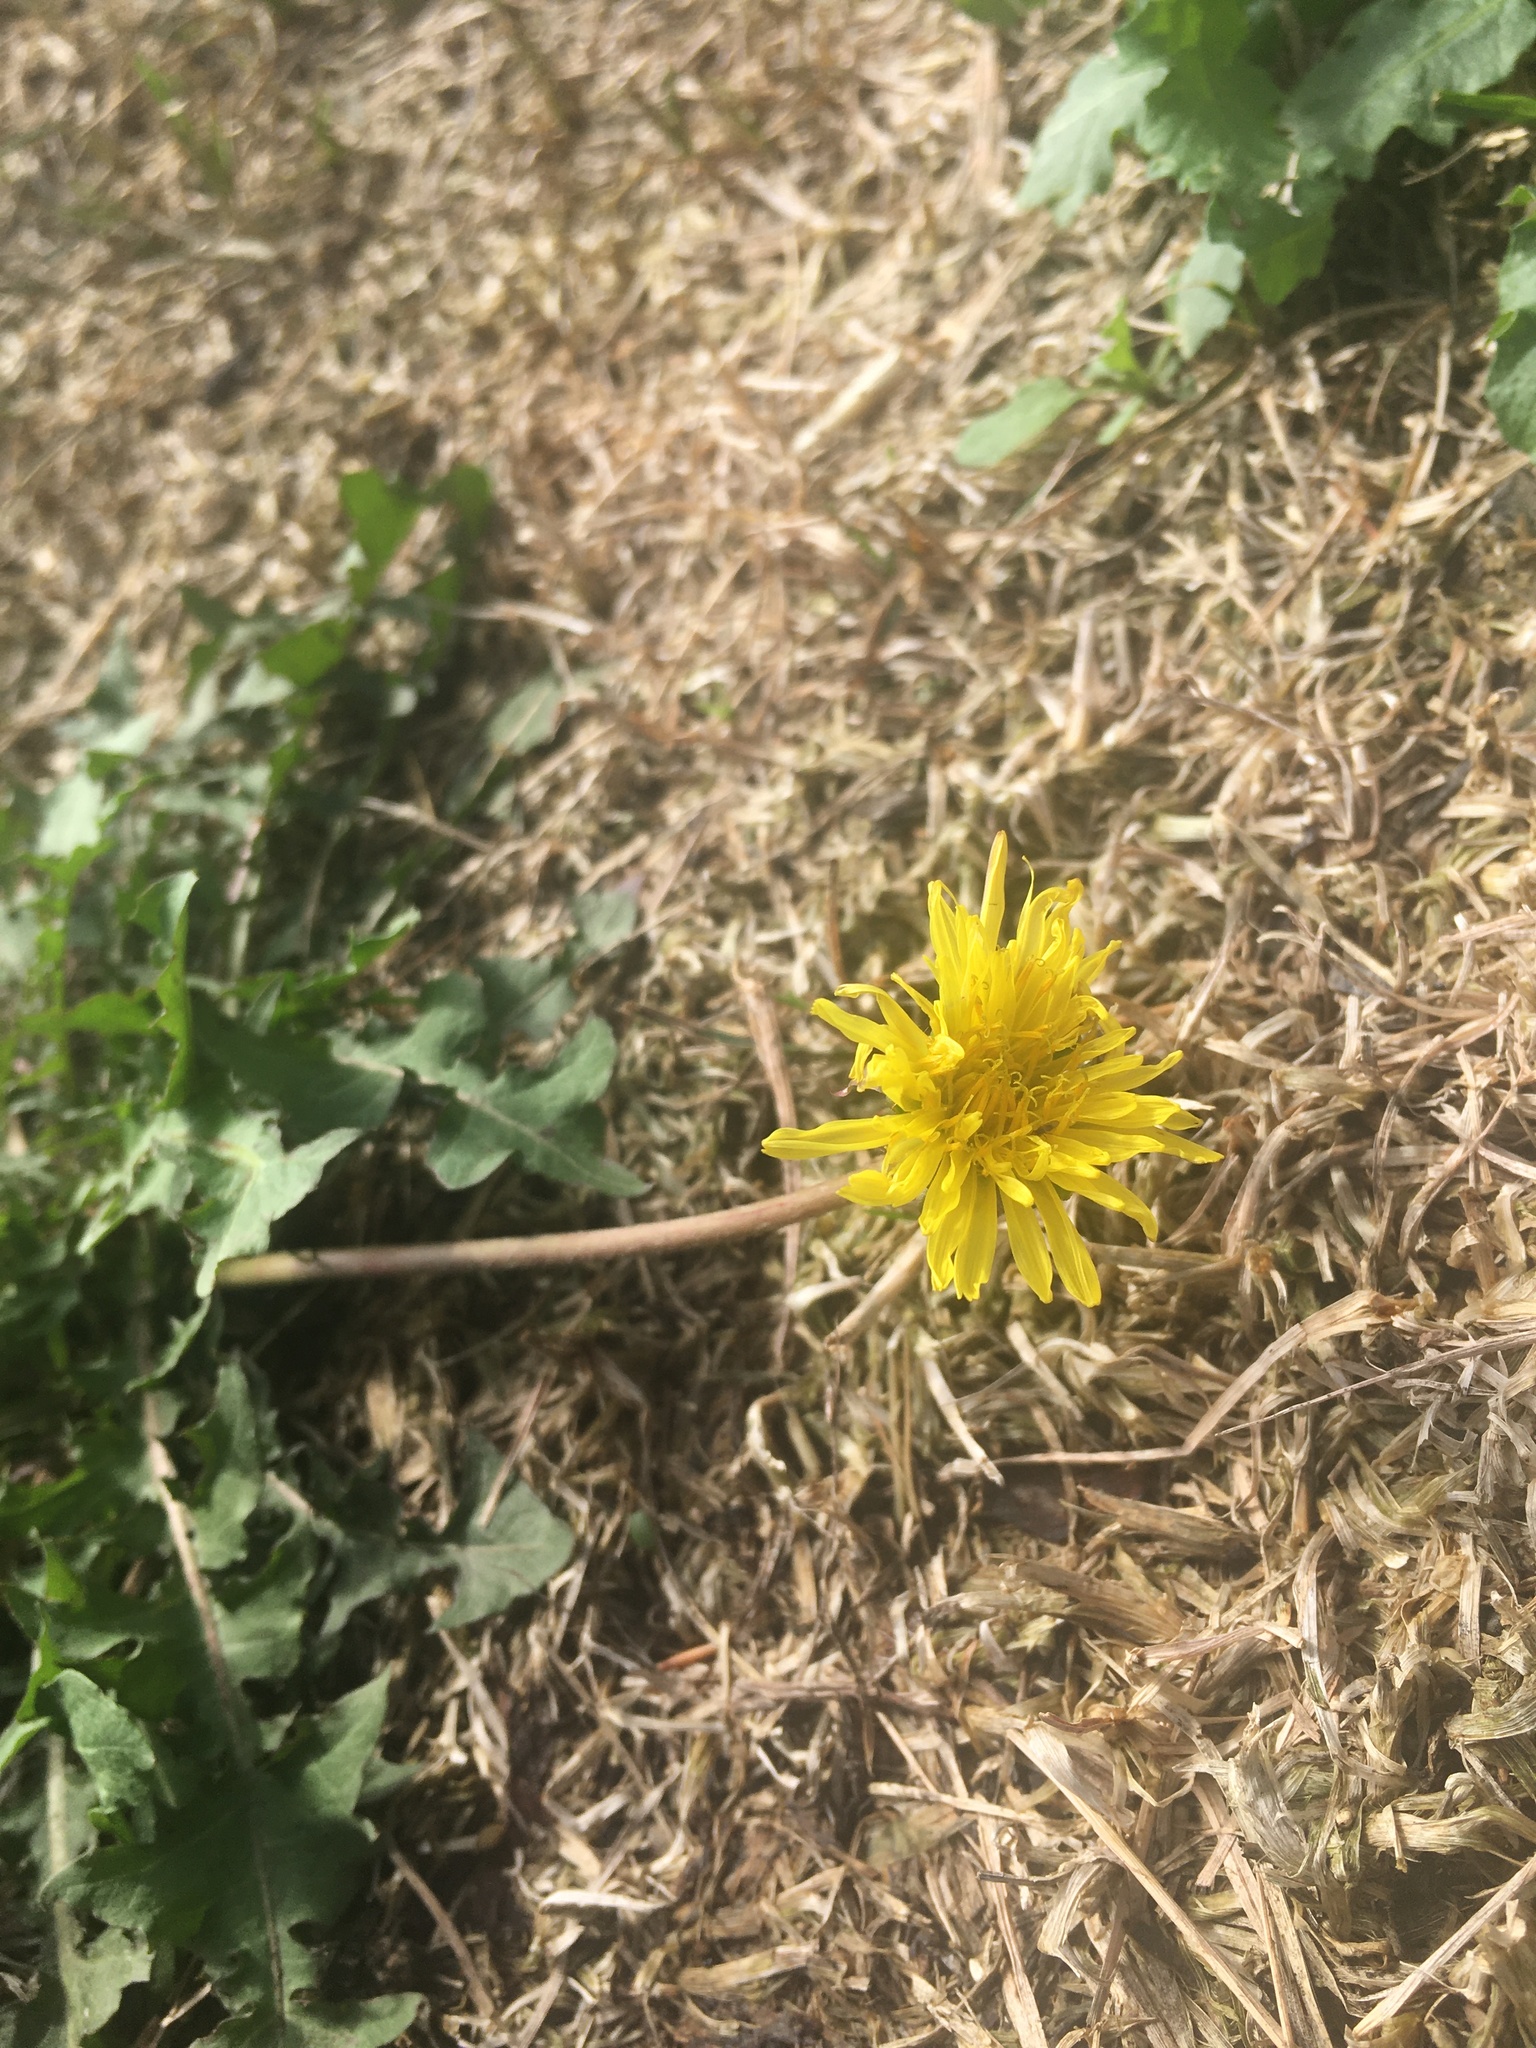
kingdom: Plantae
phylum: Tracheophyta
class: Magnoliopsida
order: Asterales
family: Asteraceae
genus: Taraxacum
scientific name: Taraxacum officinale
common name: Common dandelion
